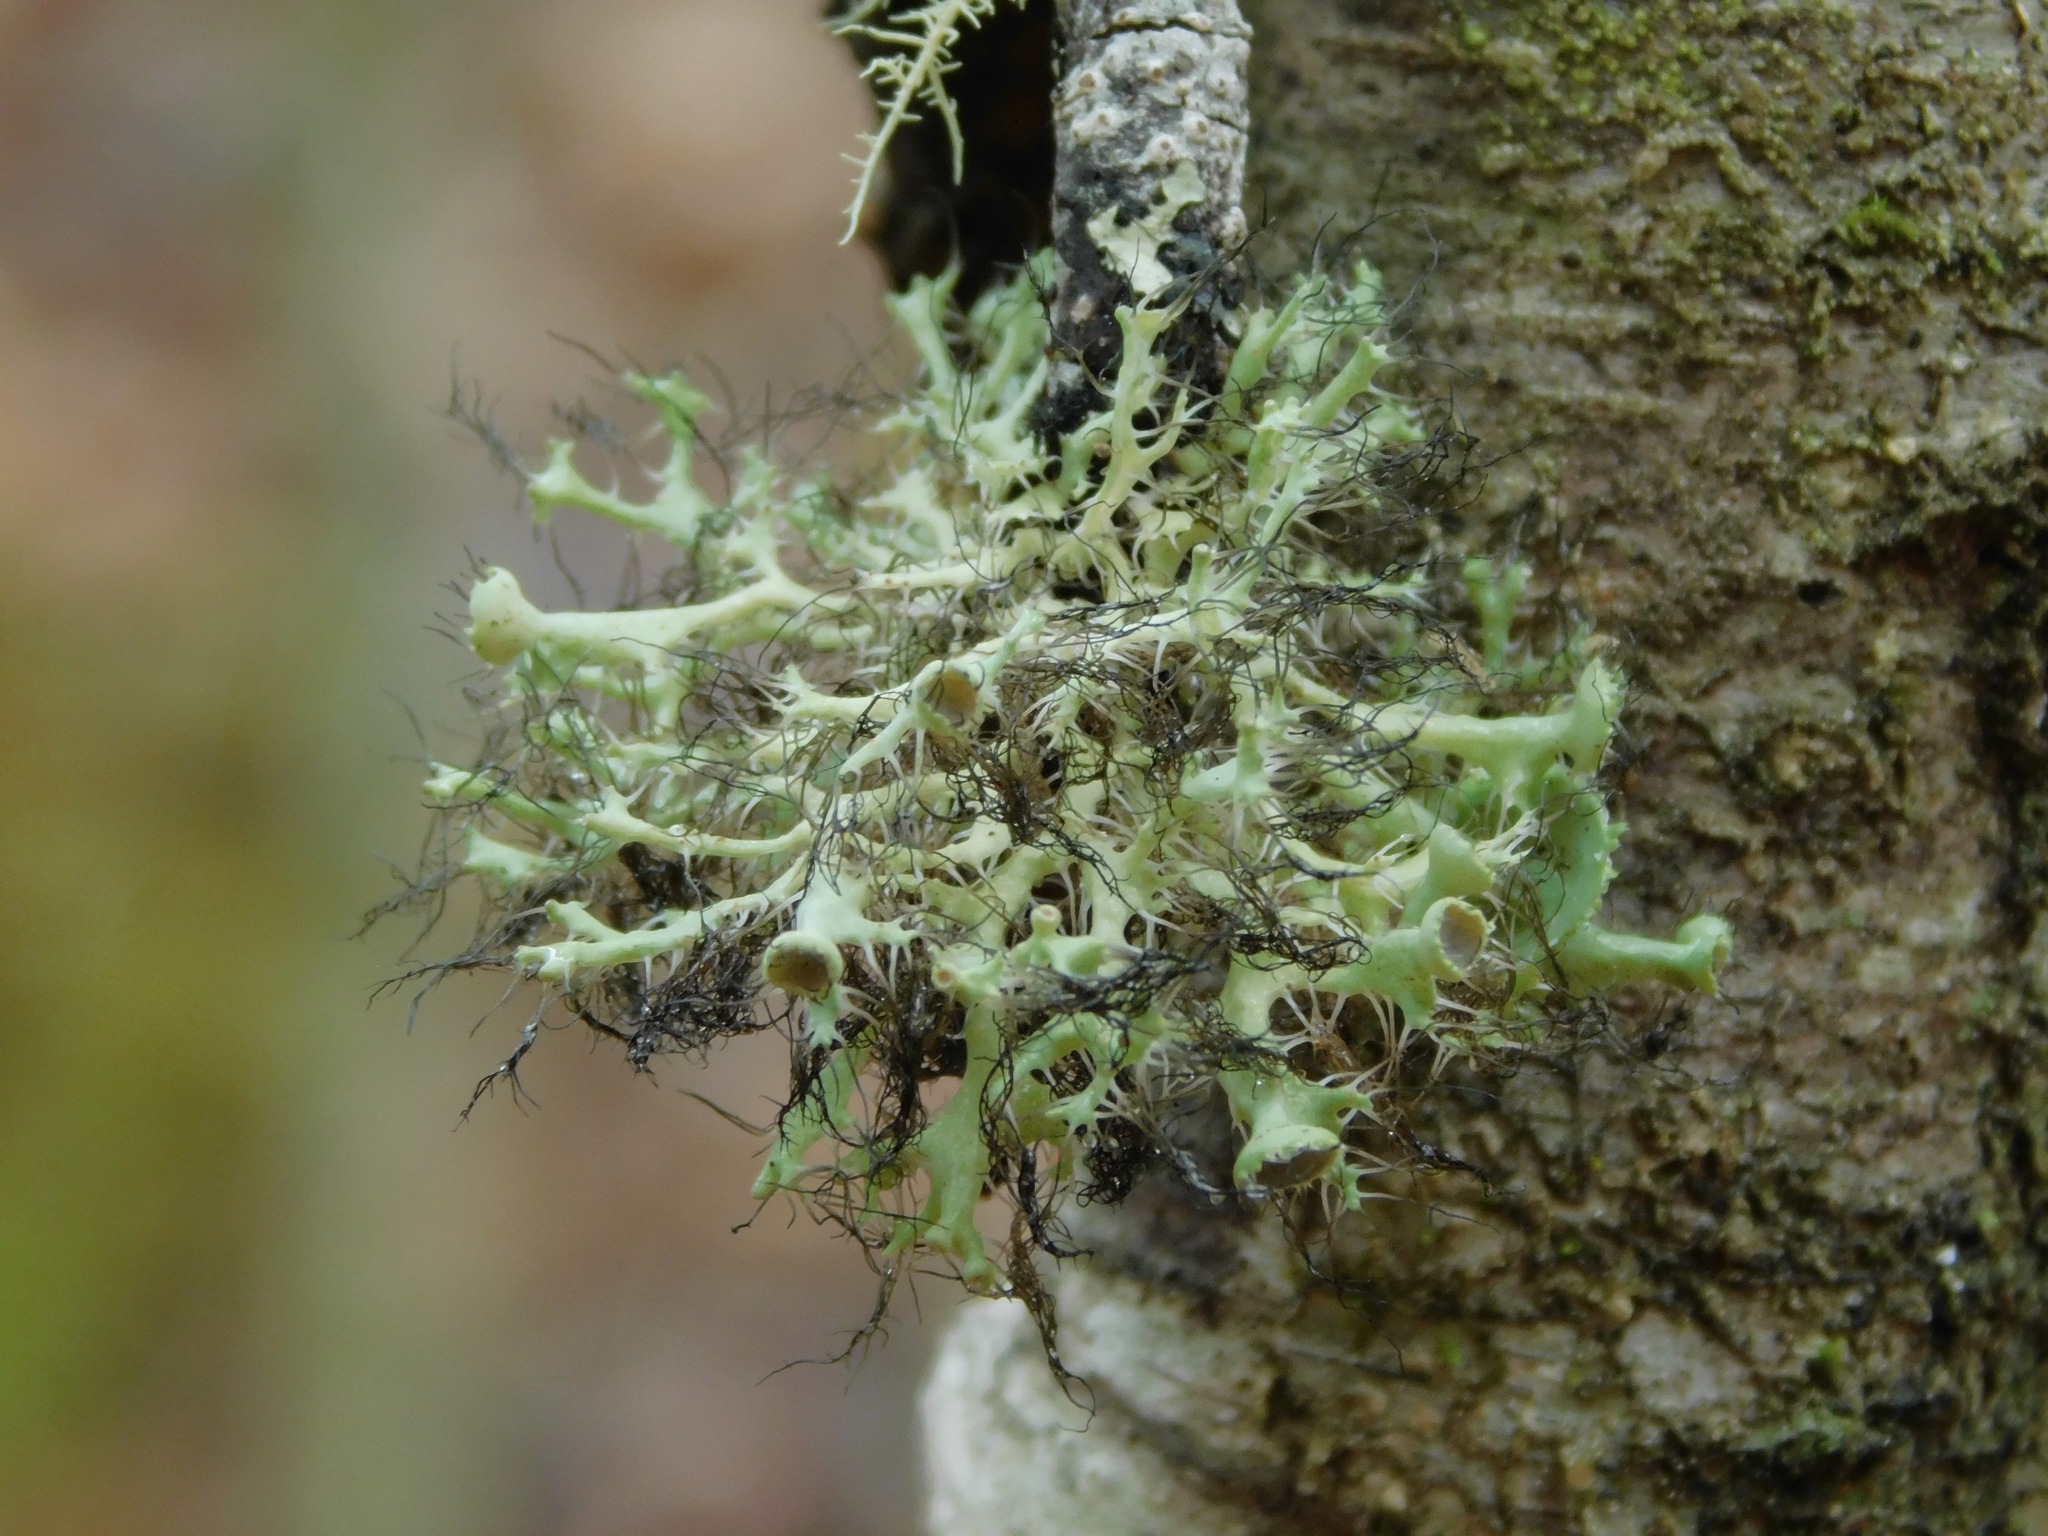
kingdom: Fungi
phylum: Ascomycota
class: Lecanoromycetes
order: Caliciales
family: Physciaceae
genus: Heterodermia
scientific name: Heterodermia echinata
